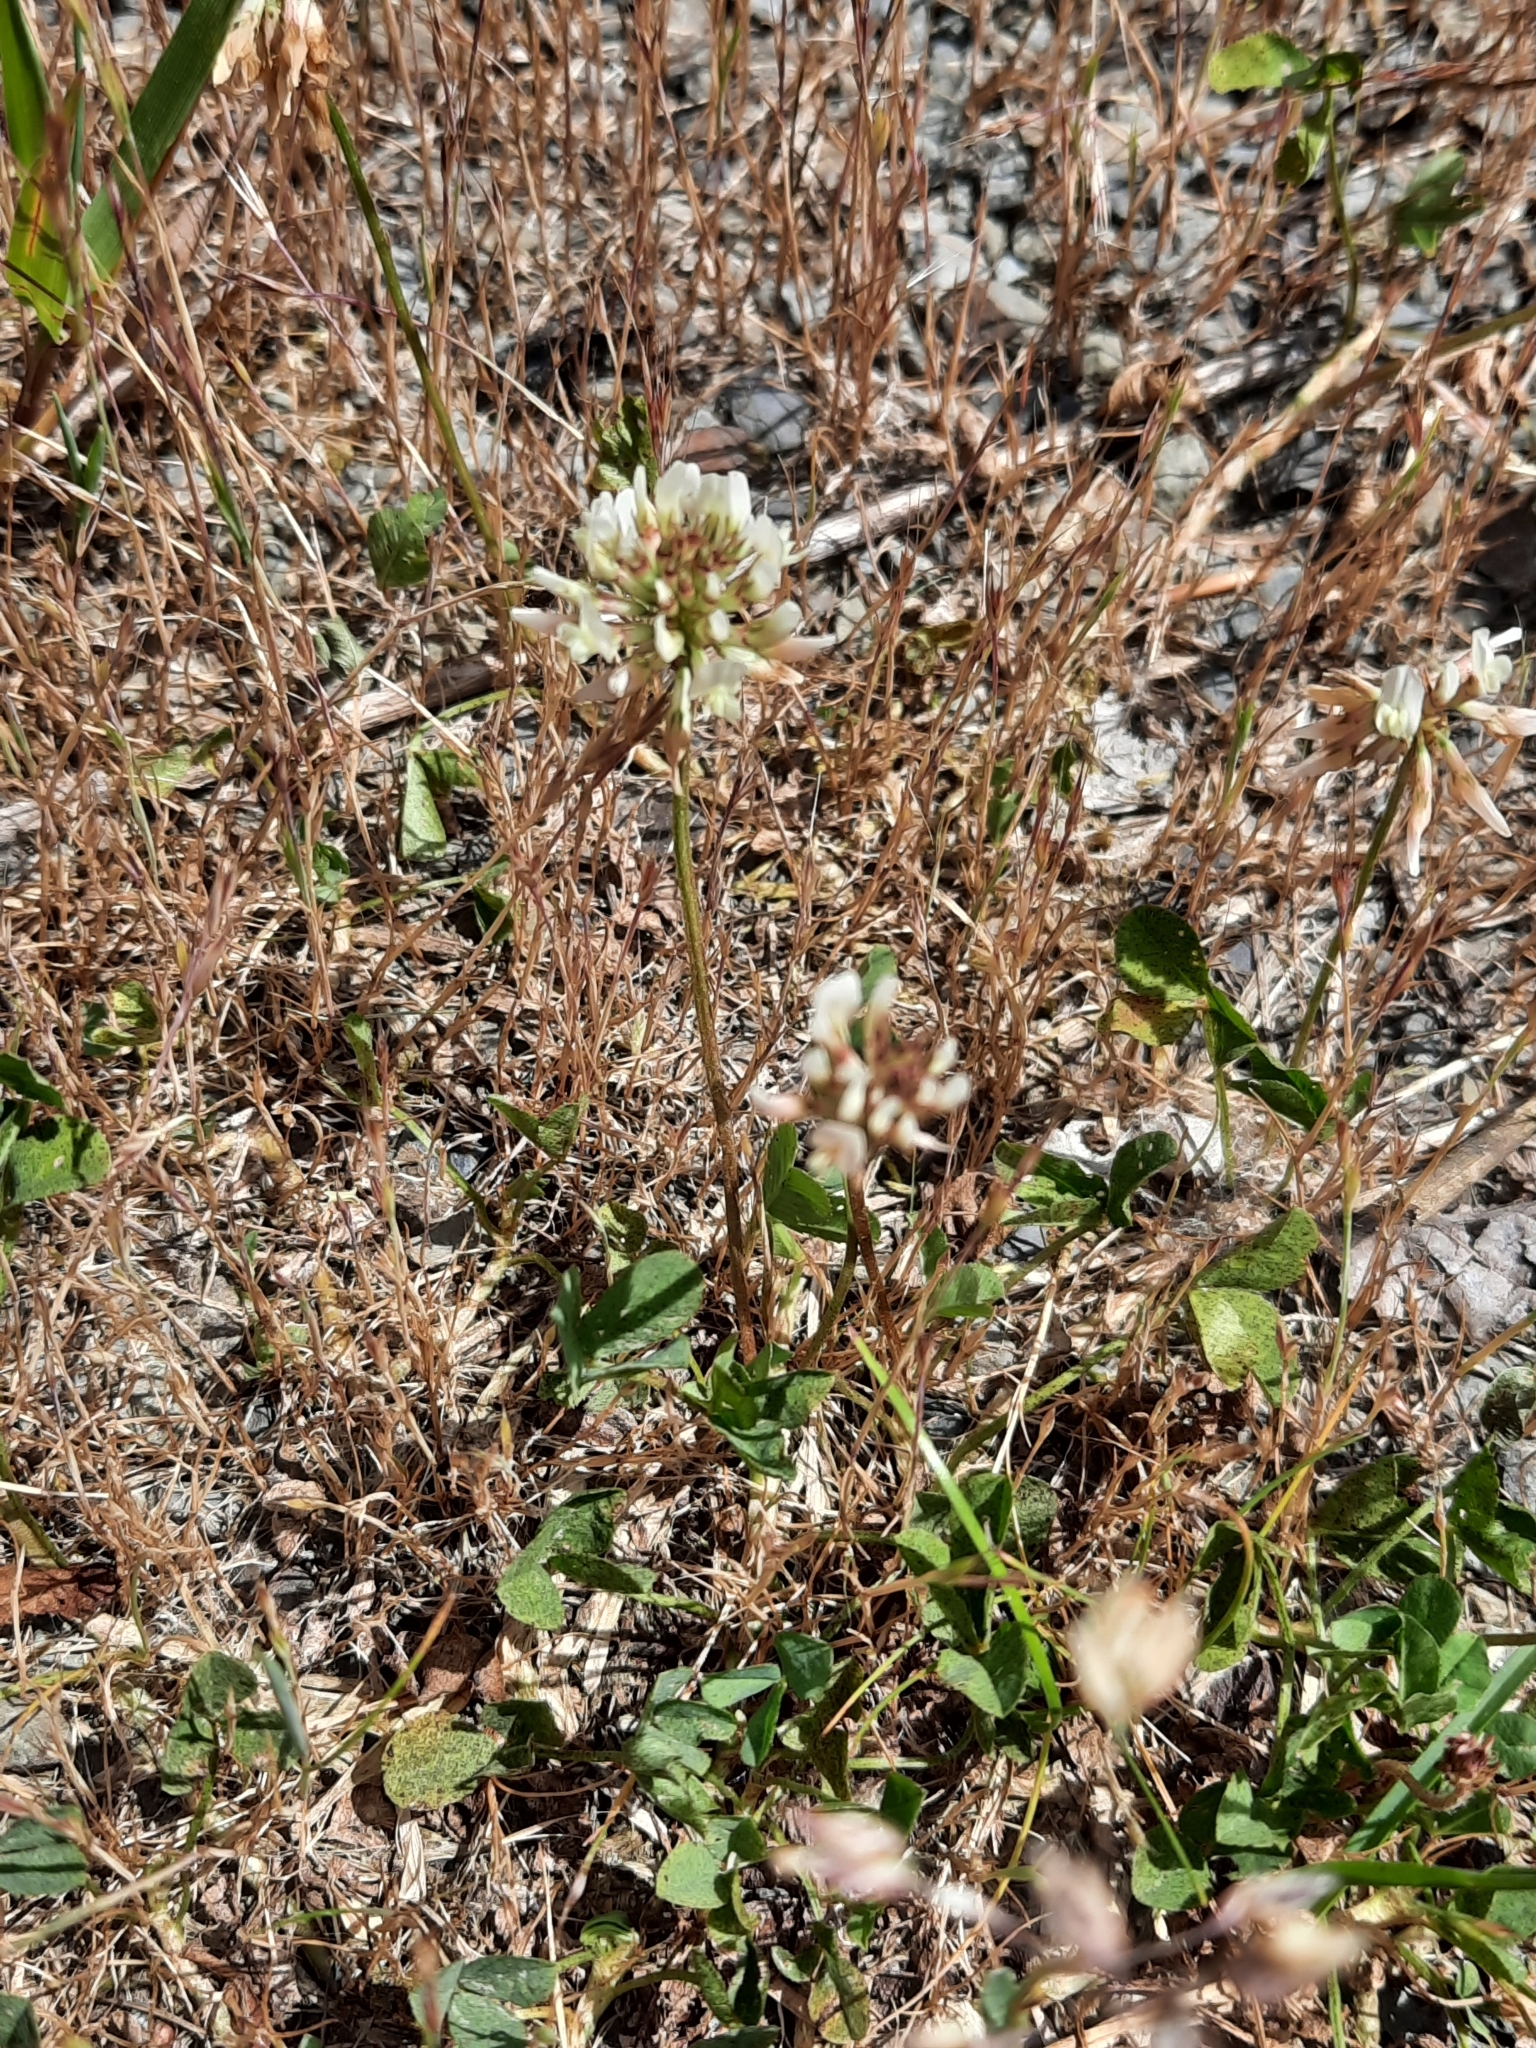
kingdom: Plantae
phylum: Tracheophyta
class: Magnoliopsida
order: Fabales
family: Fabaceae
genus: Trifolium
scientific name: Trifolium repens
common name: White clover
